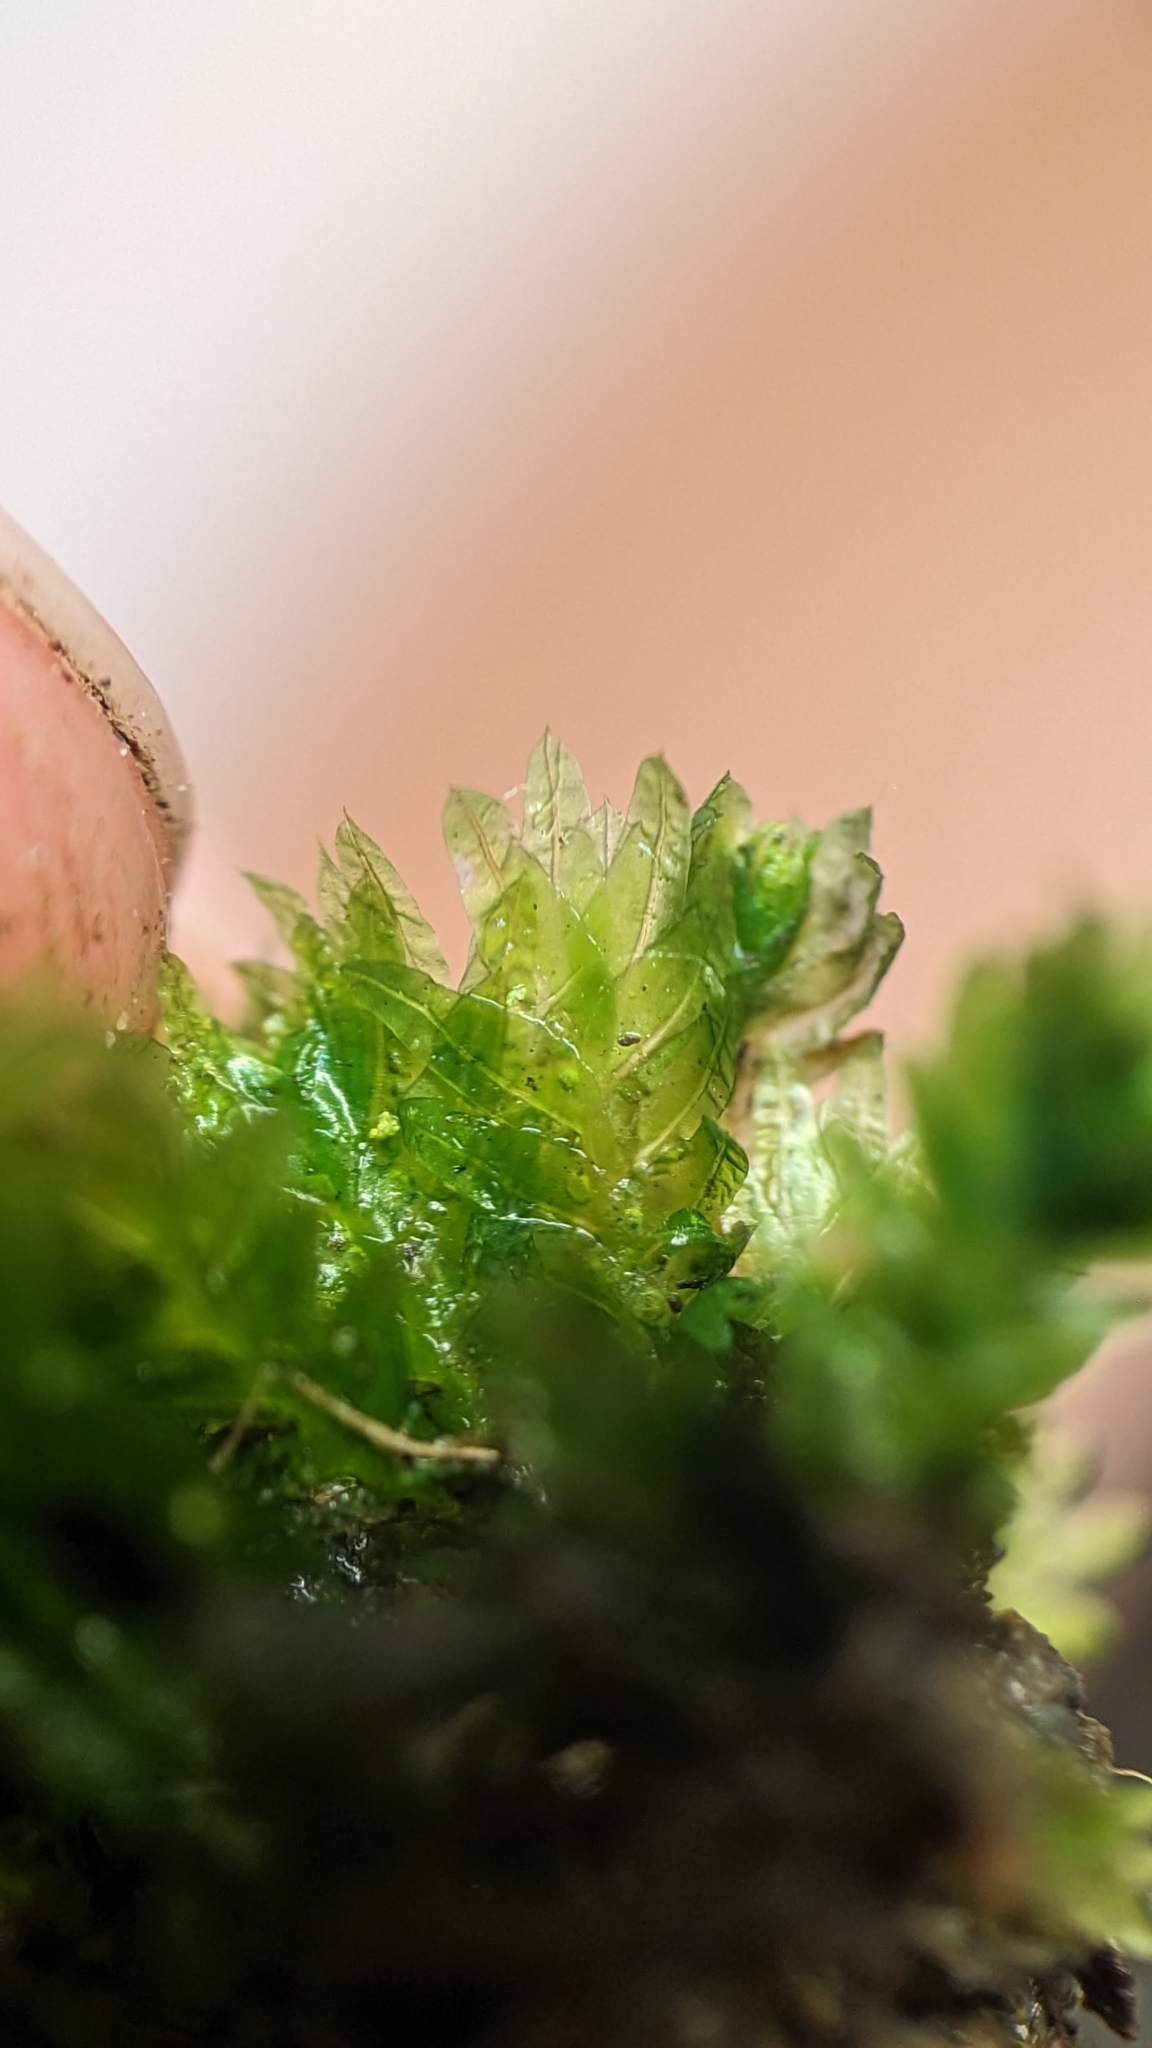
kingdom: Plantae
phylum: Bryophyta
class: Bryopsida
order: Dicranales
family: Fissidentaceae
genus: Fissidens
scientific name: Fissidens taxifolius
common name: Yew-leaved pocket moss
